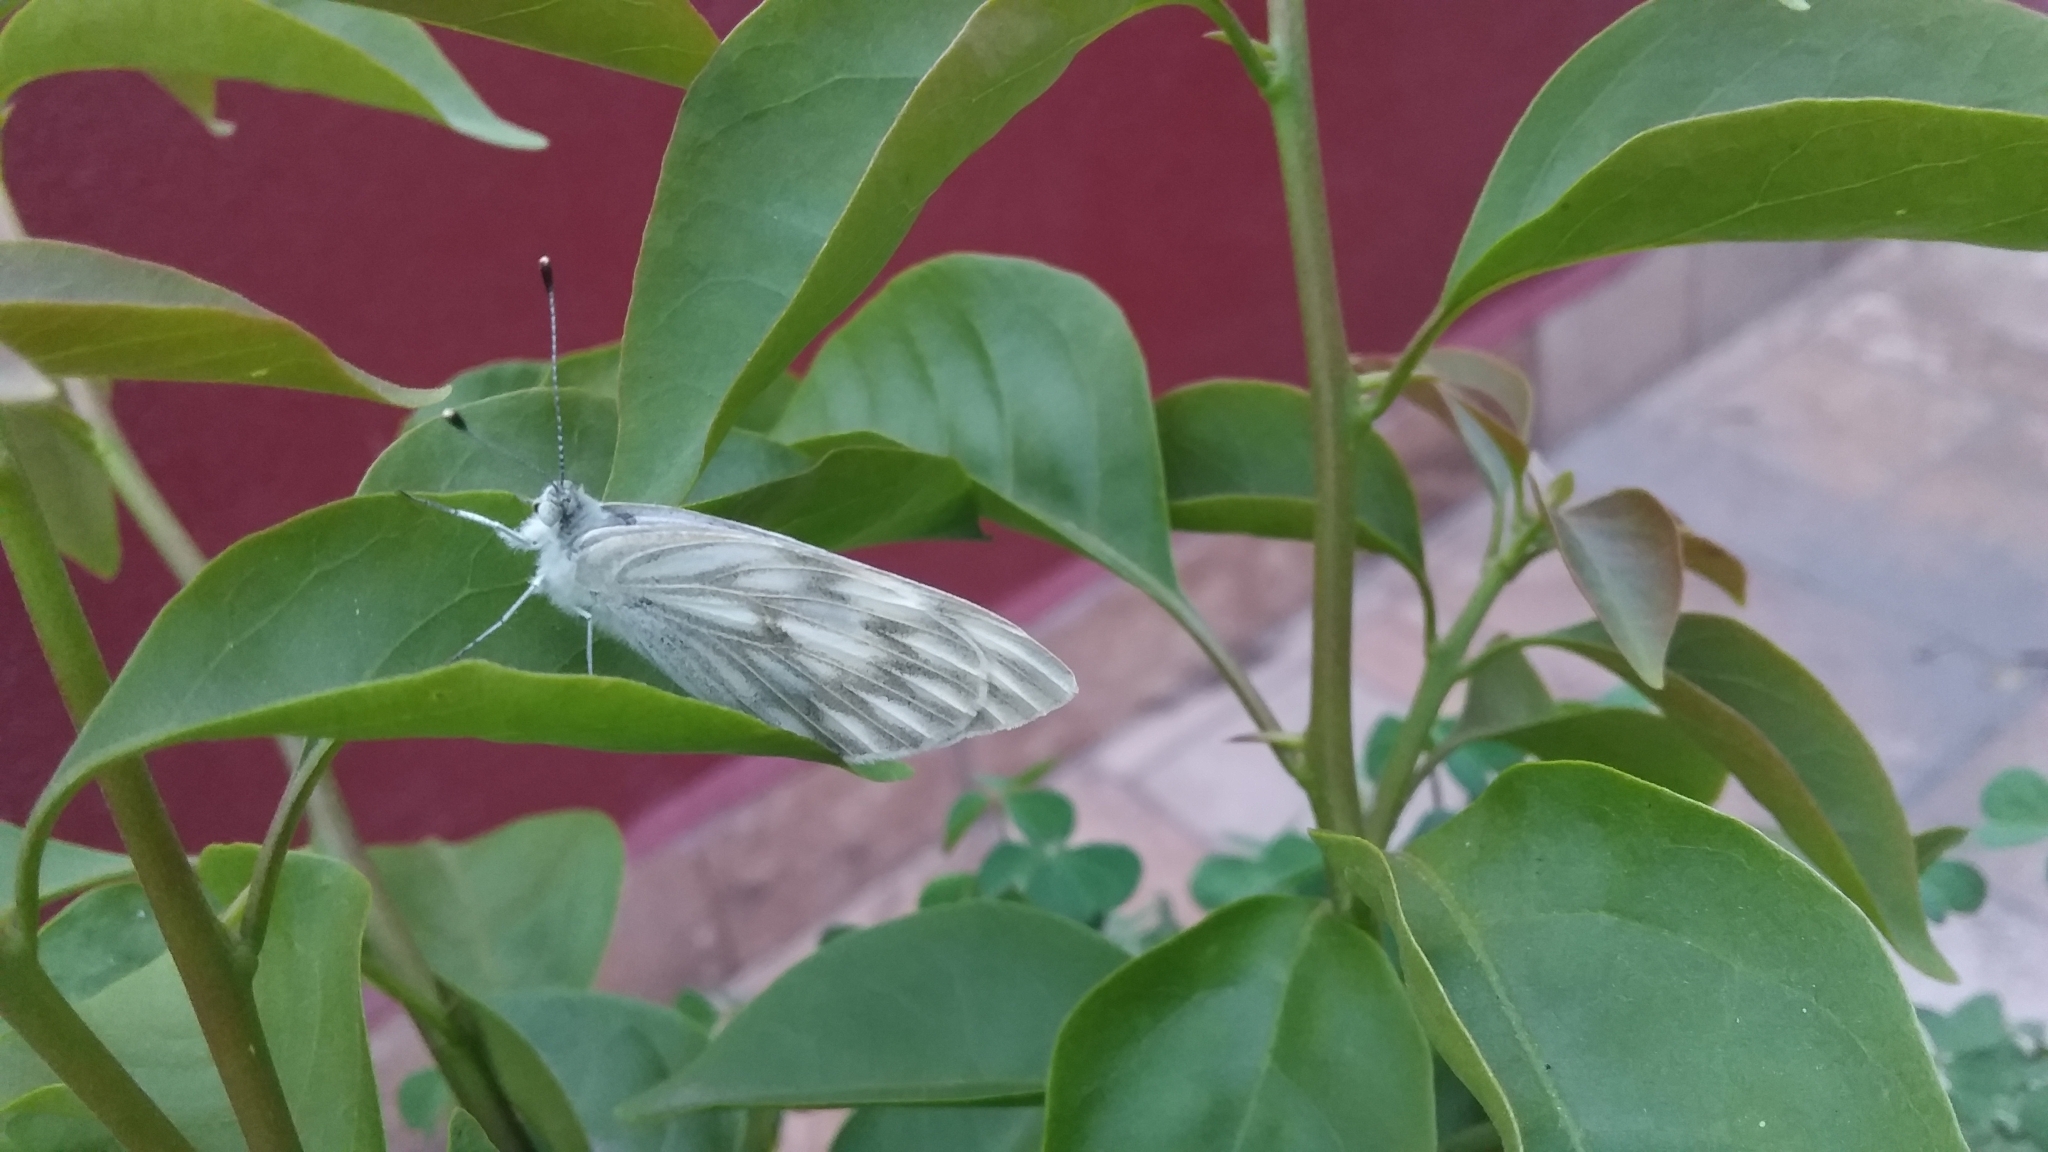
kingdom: Animalia
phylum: Arthropoda
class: Insecta
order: Lepidoptera
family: Pieridae
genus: Pontia
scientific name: Pontia protodice
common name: Checkered white
